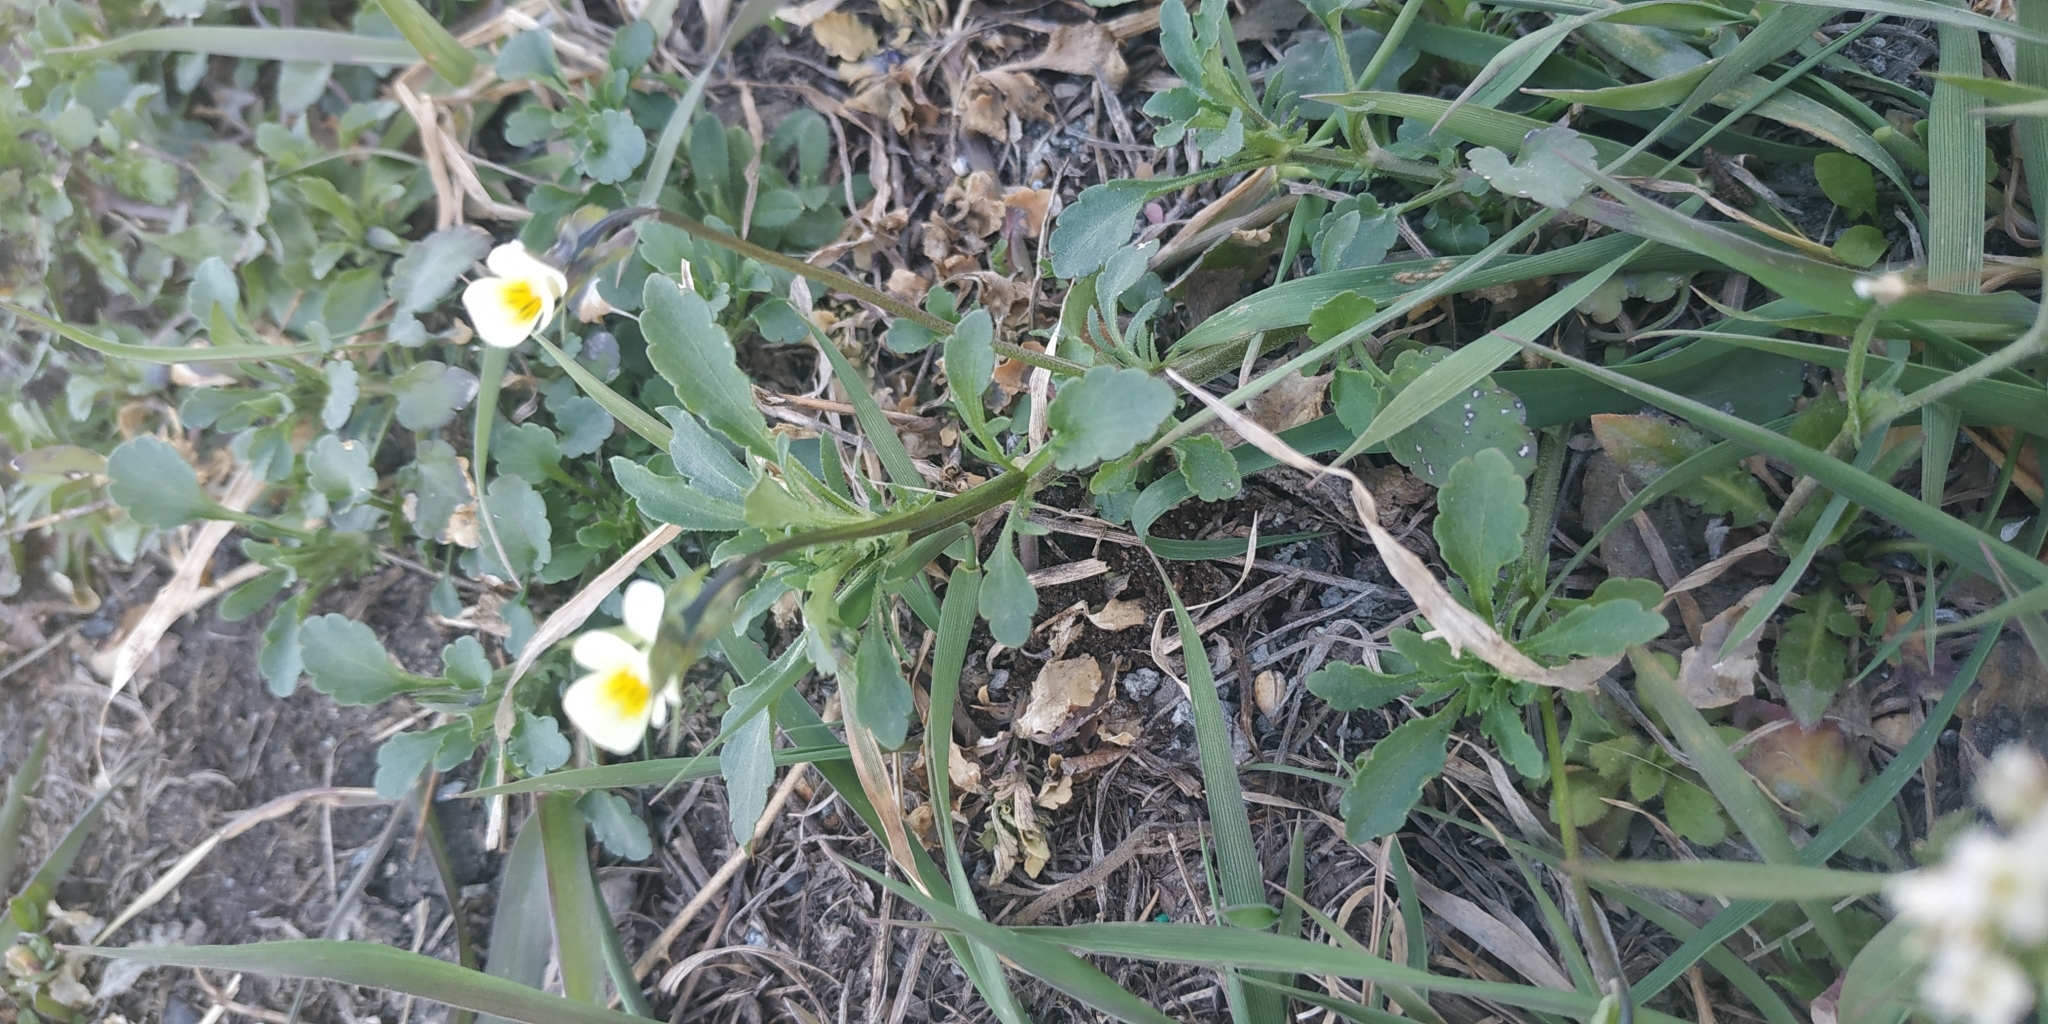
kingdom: Plantae
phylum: Tracheophyta
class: Magnoliopsida
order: Malpighiales
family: Violaceae
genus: Viola
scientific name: Viola arvensis
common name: Field pansy
